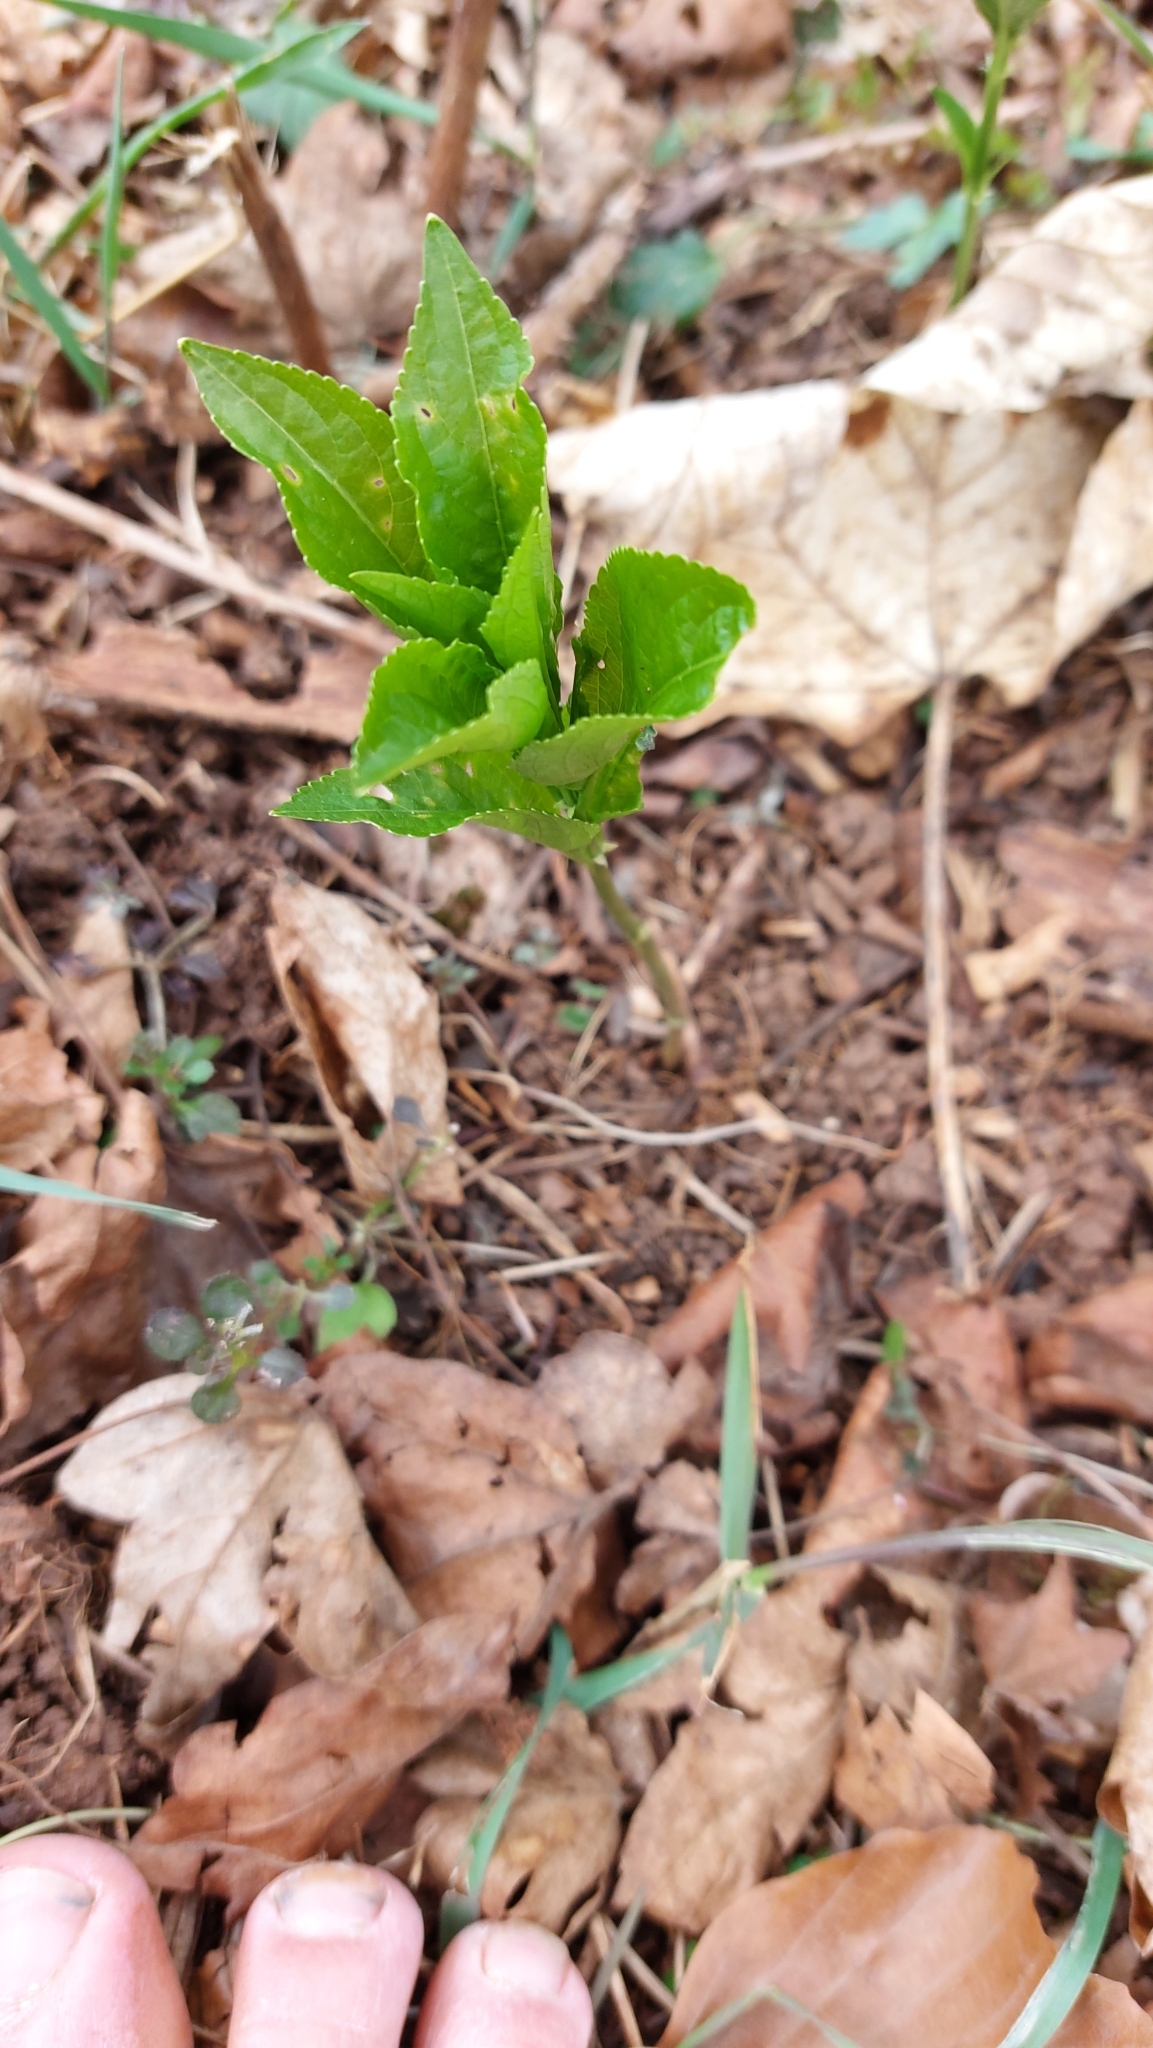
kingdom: Plantae
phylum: Tracheophyta
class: Magnoliopsida
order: Malpighiales
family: Euphorbiaceae
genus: Mercurialis
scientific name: Mercurialis perennis
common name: Dog mercury
